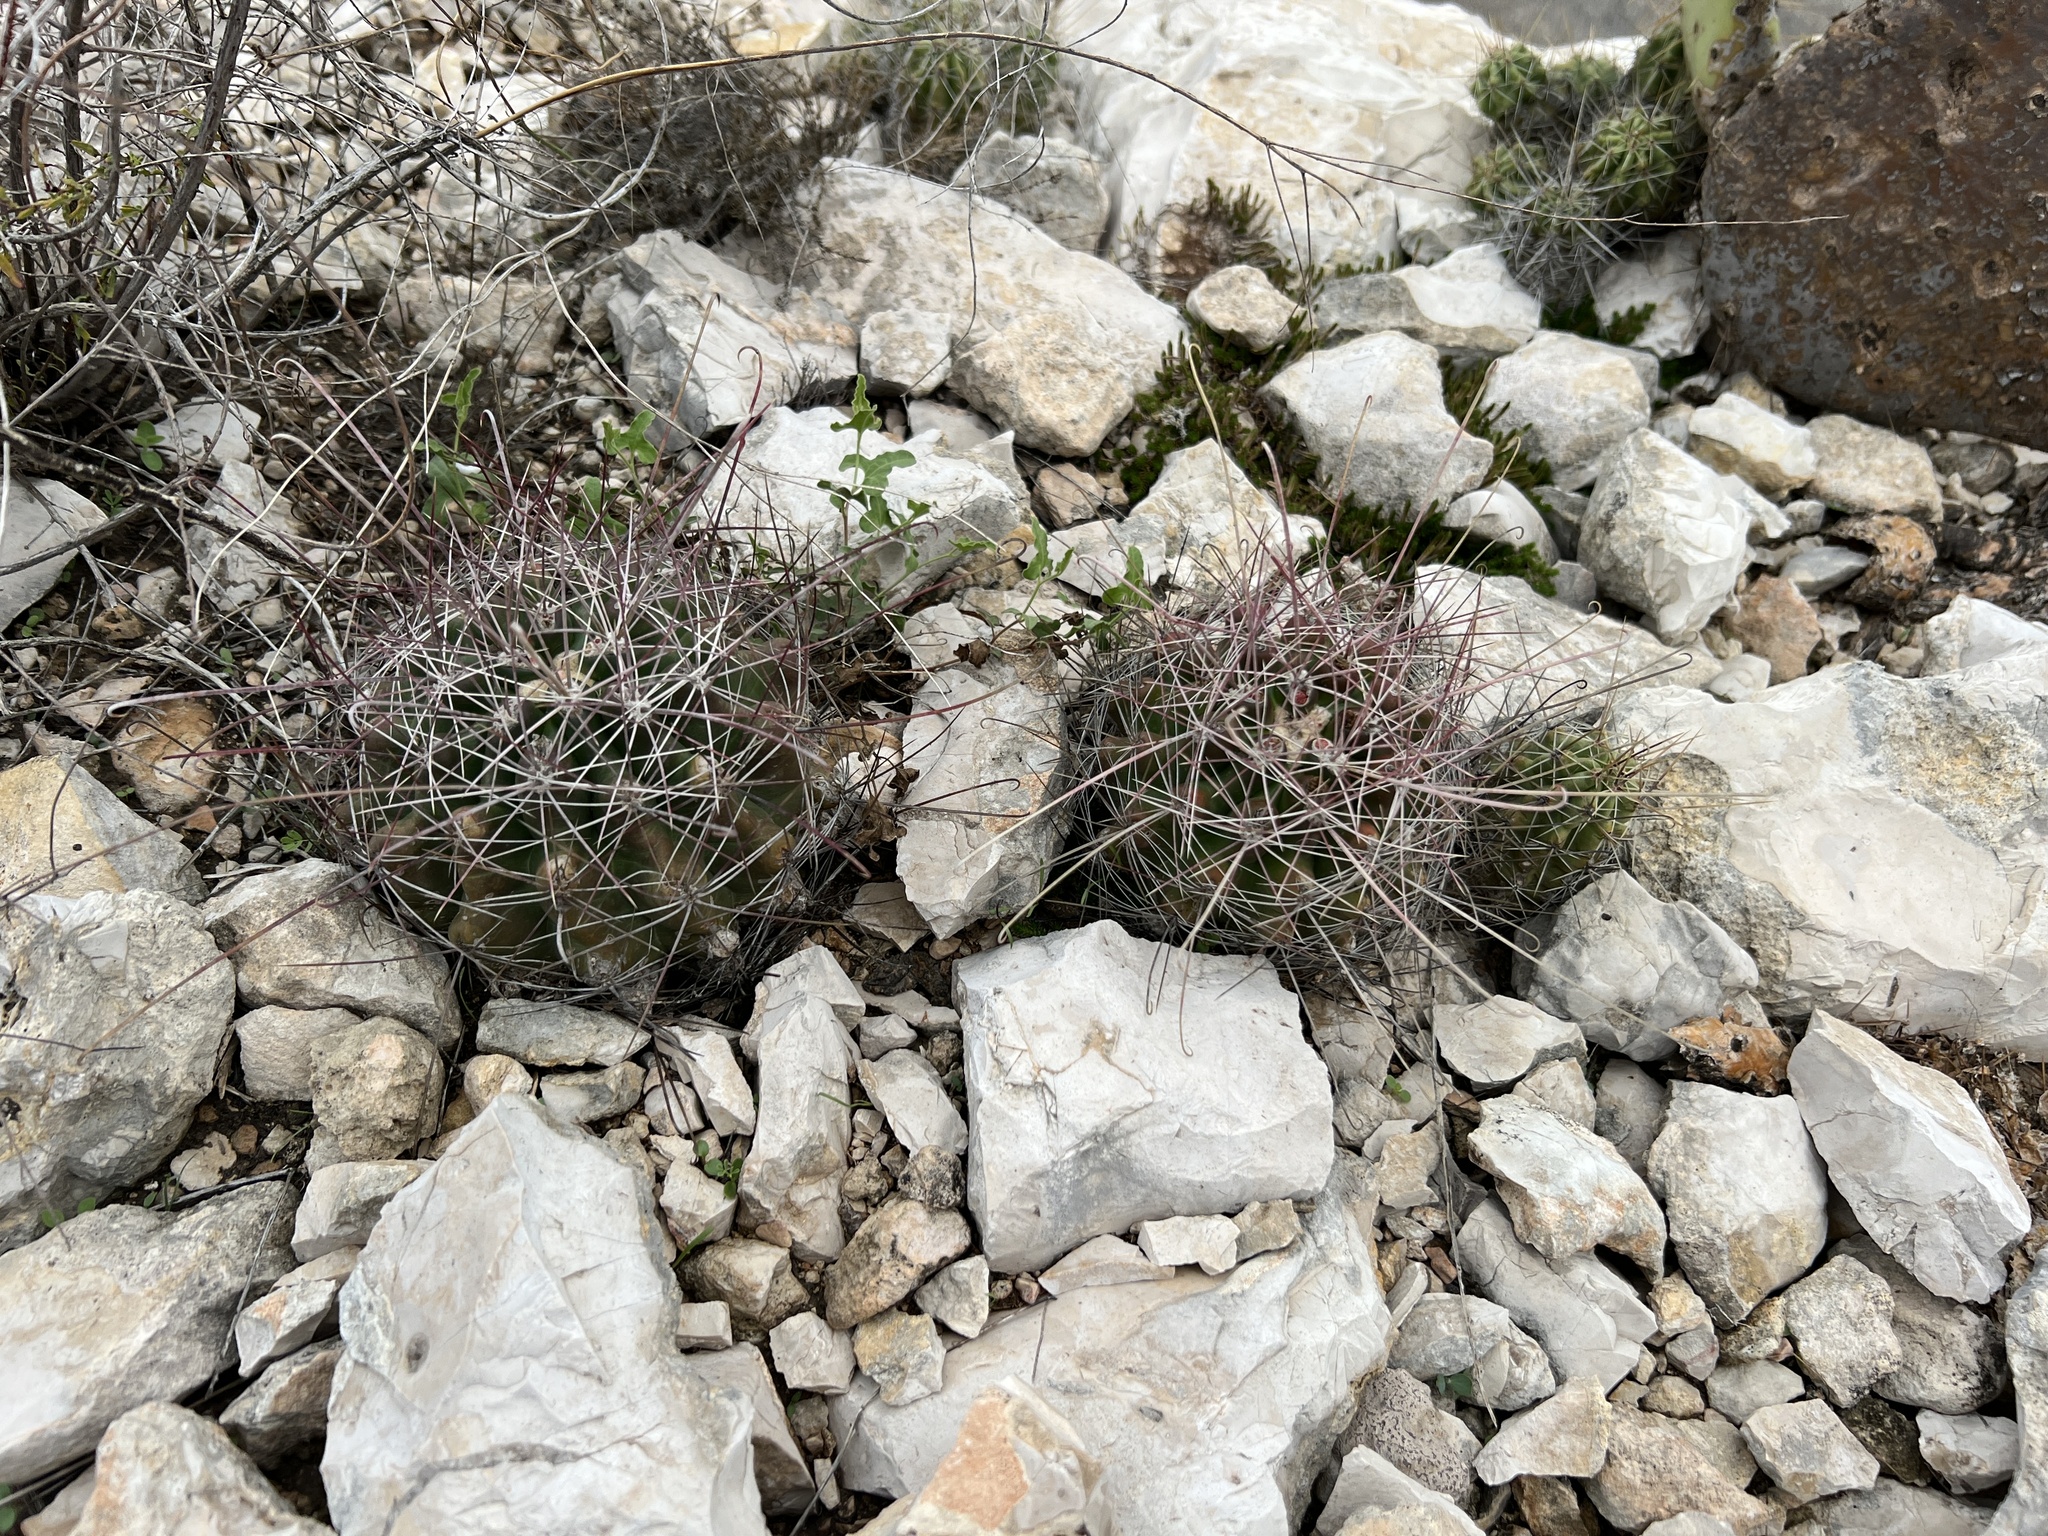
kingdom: Plantae
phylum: Tracheophyta
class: Magnoliopsida
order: Caryophyllales
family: Cactaceae
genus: Bisnaga
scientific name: Bisnaga hamatacantha
